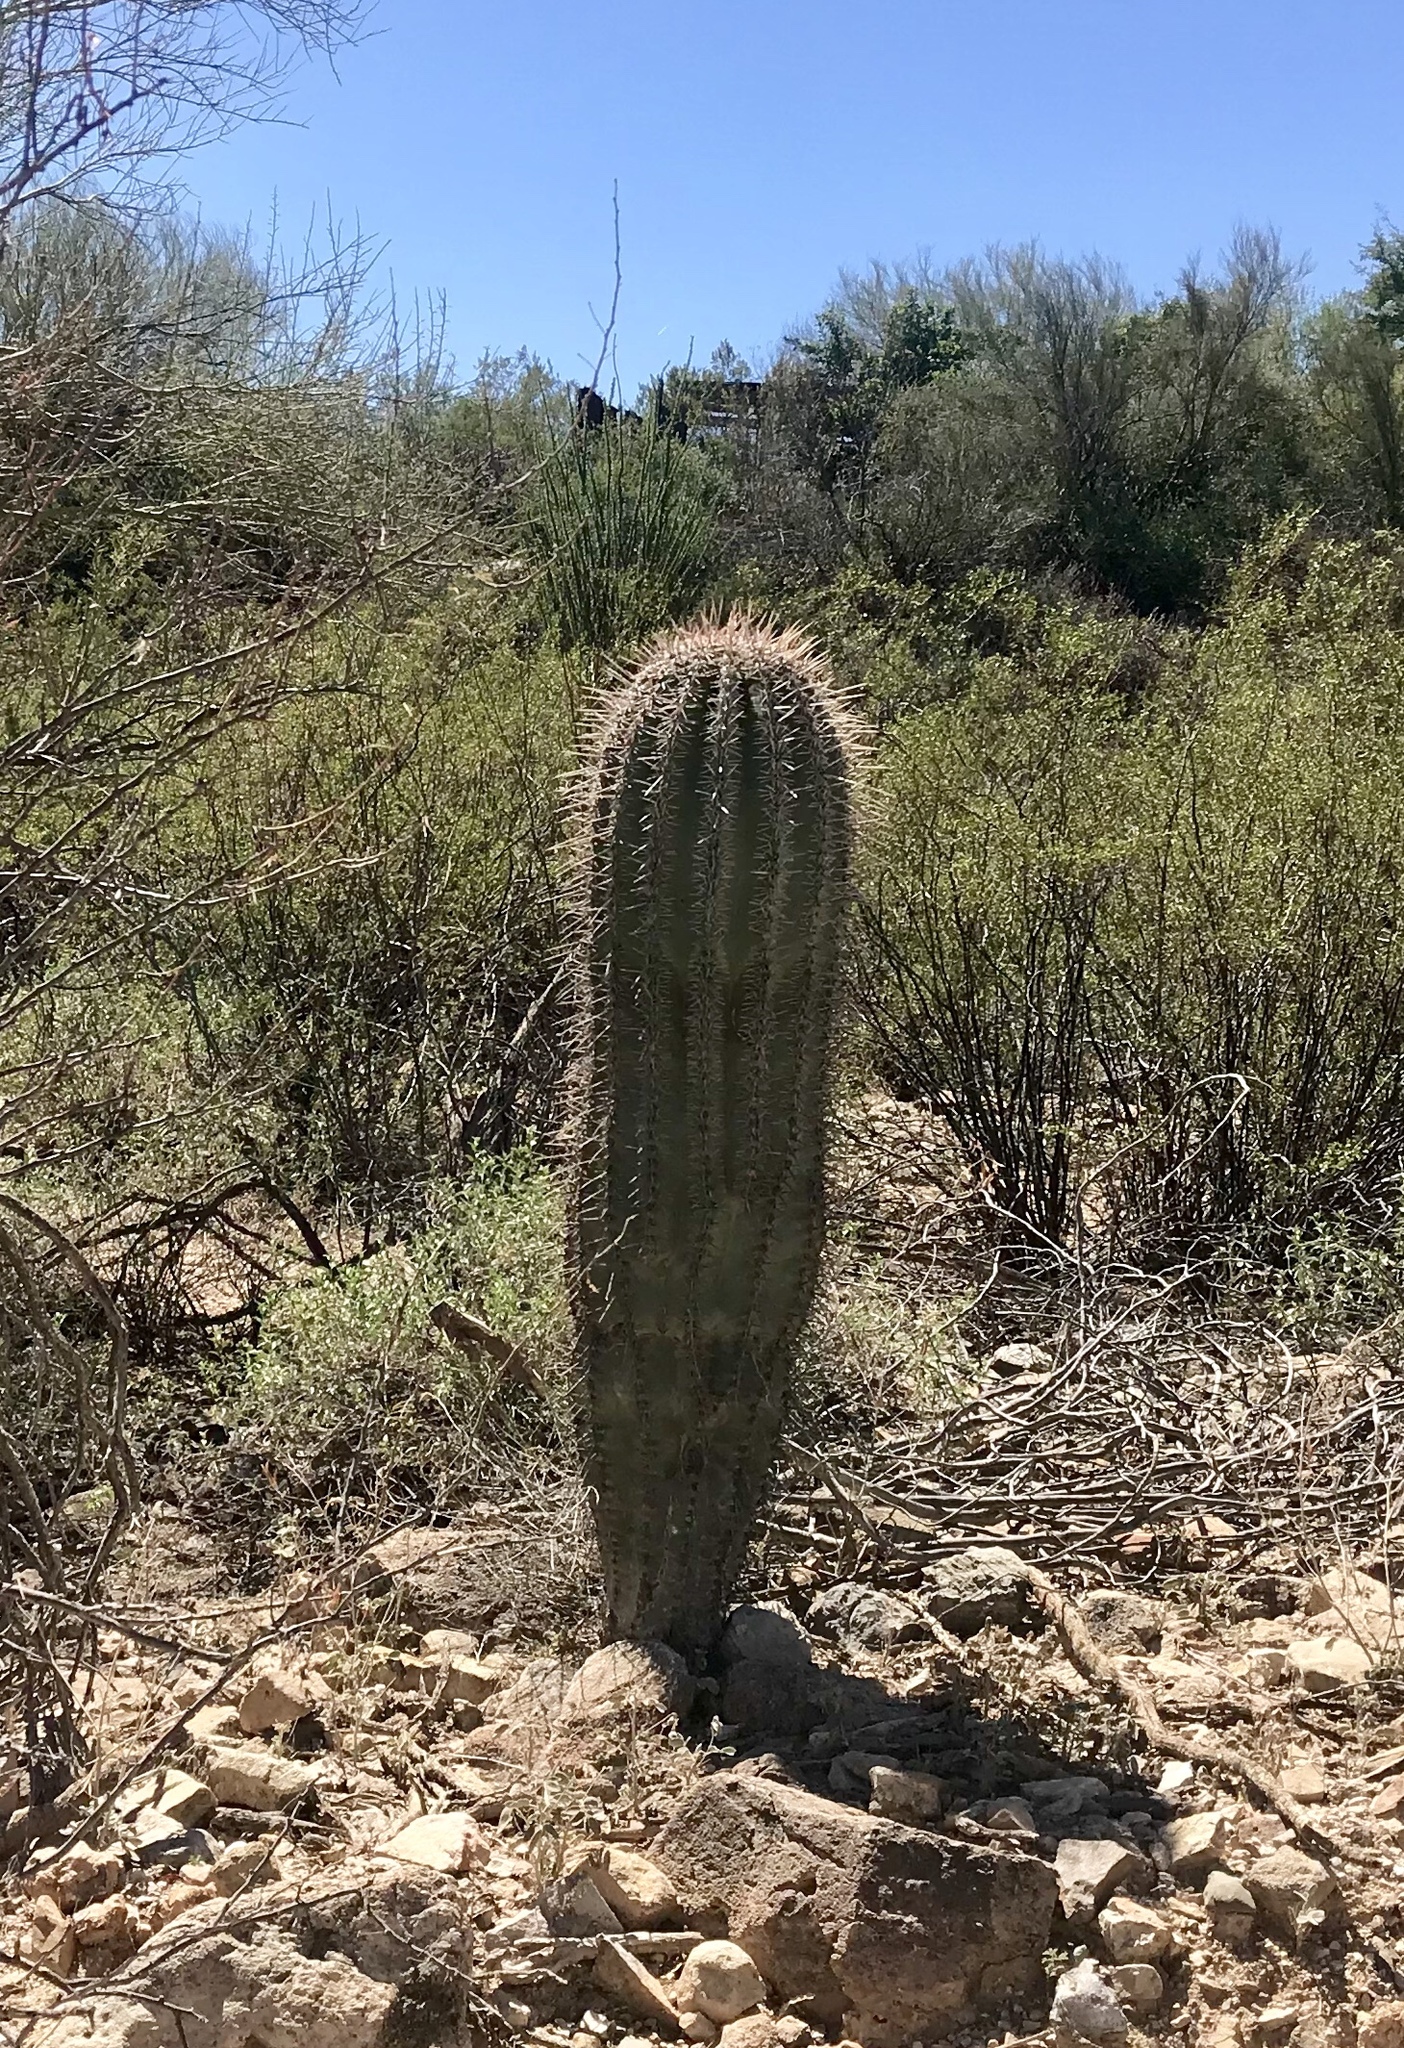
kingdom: Plantae
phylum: Tracheophyta
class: Magnoliopsida
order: Caryophyllales
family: Cactaceae
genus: Carnegiea
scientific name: Carnegiea gigantea
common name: Saguaro
